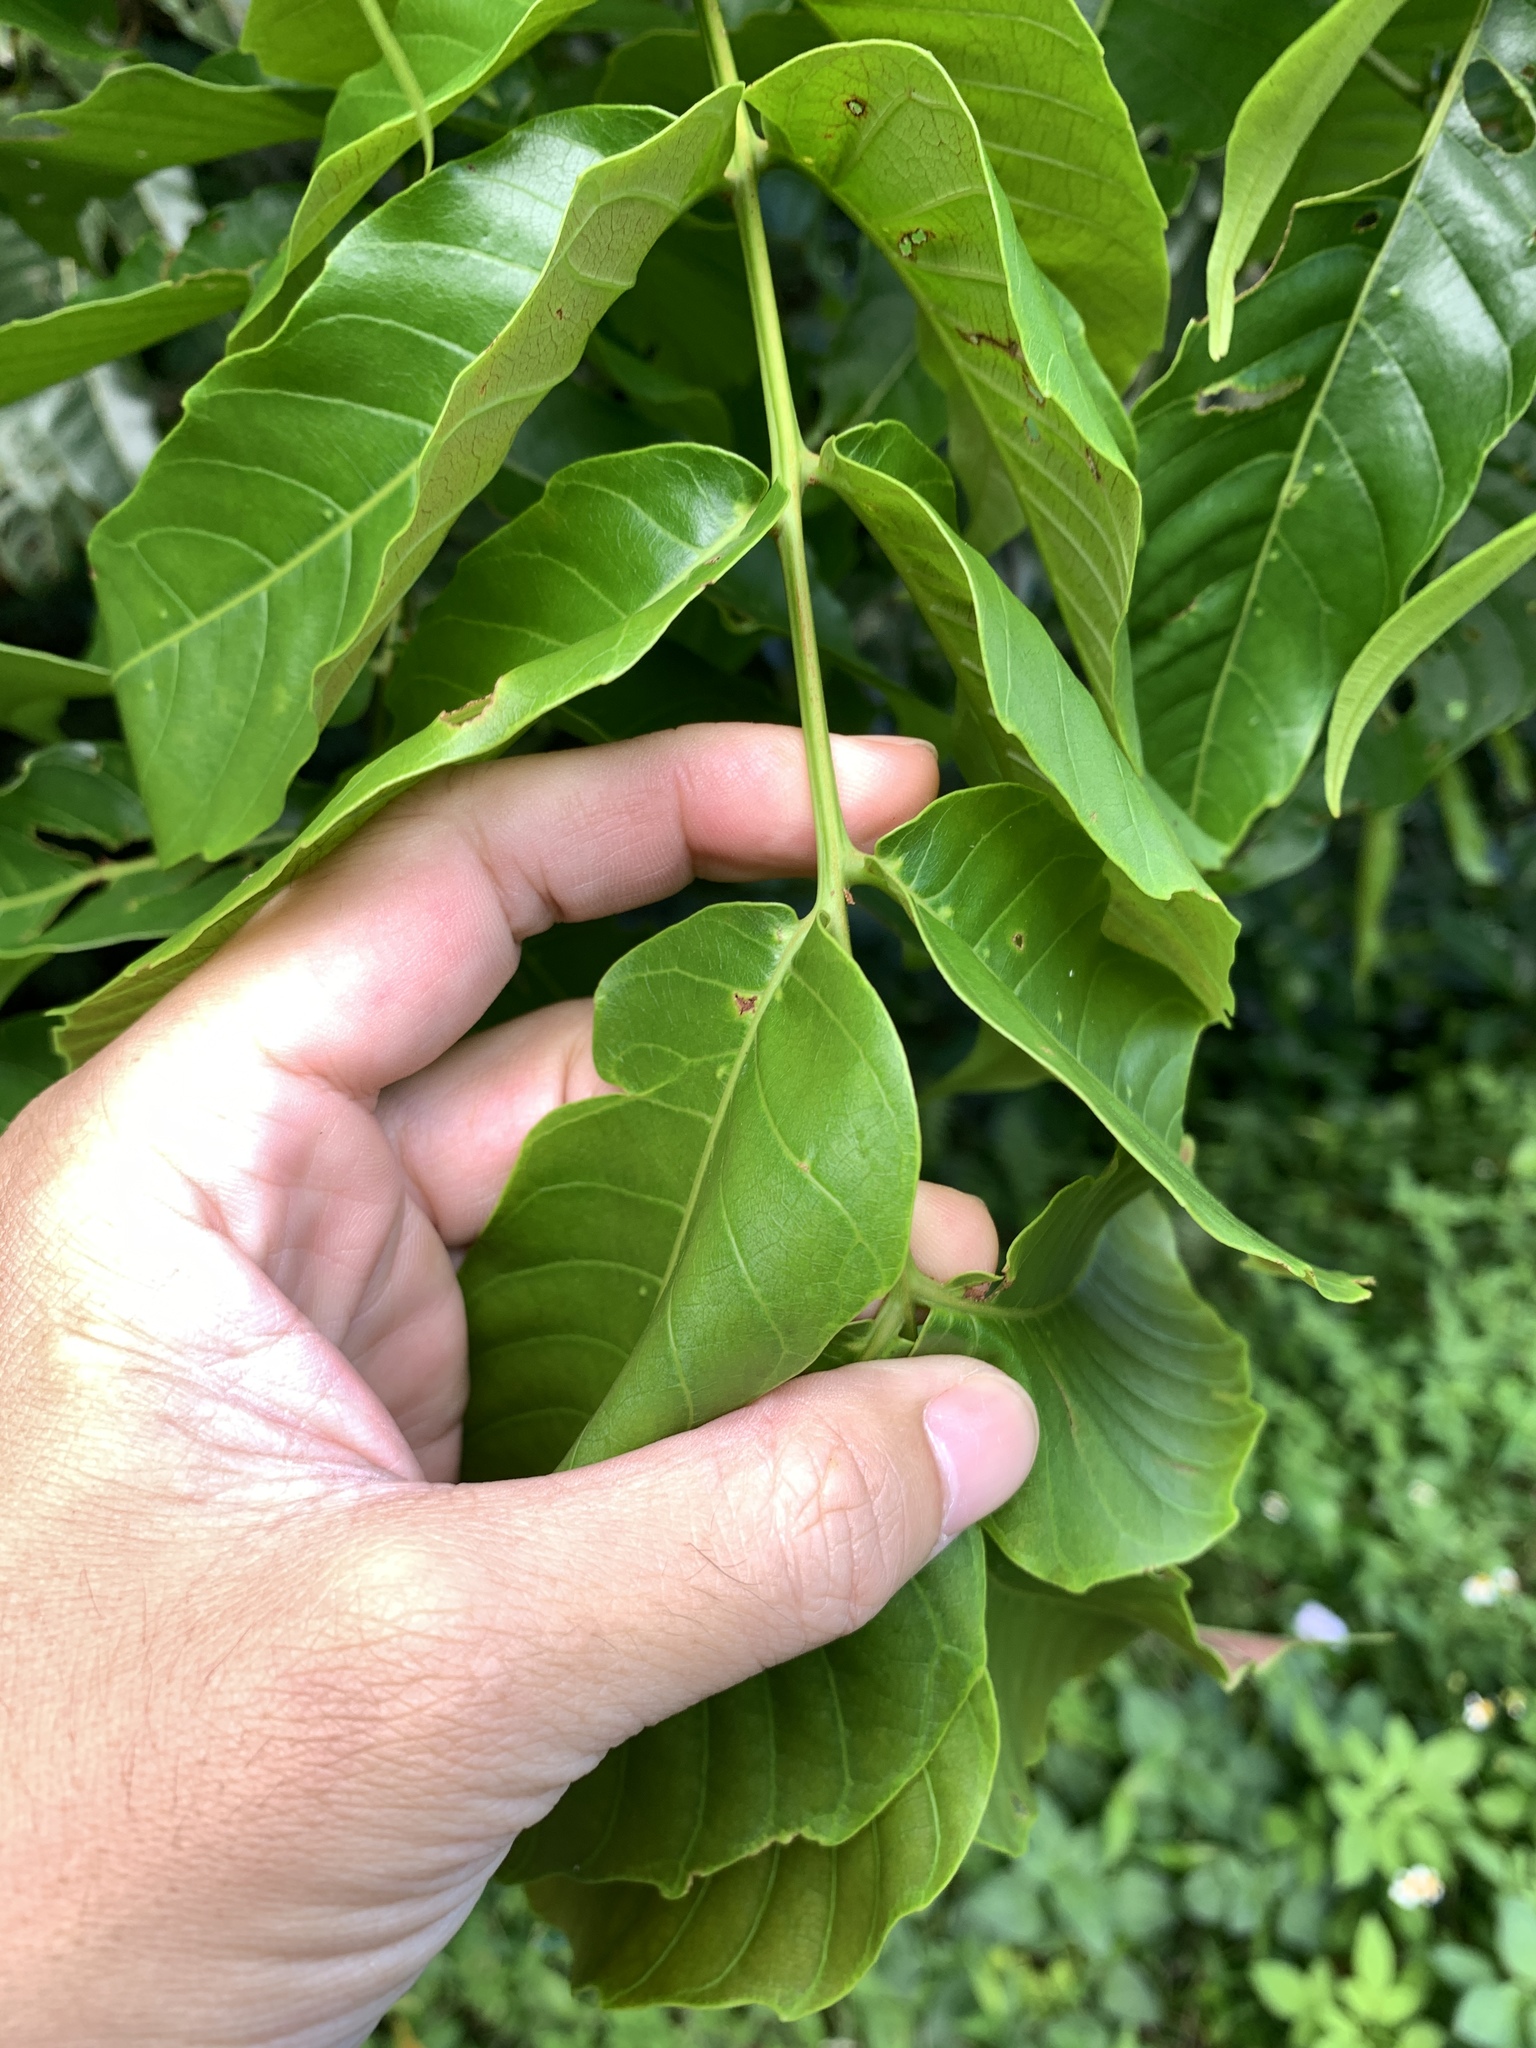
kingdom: Plantae
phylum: Tracheophyta
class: Magnoliopsida
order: Sapindales
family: Sapindaceae
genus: Pometia
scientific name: Pometia pinnata
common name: Oceanic lychee
